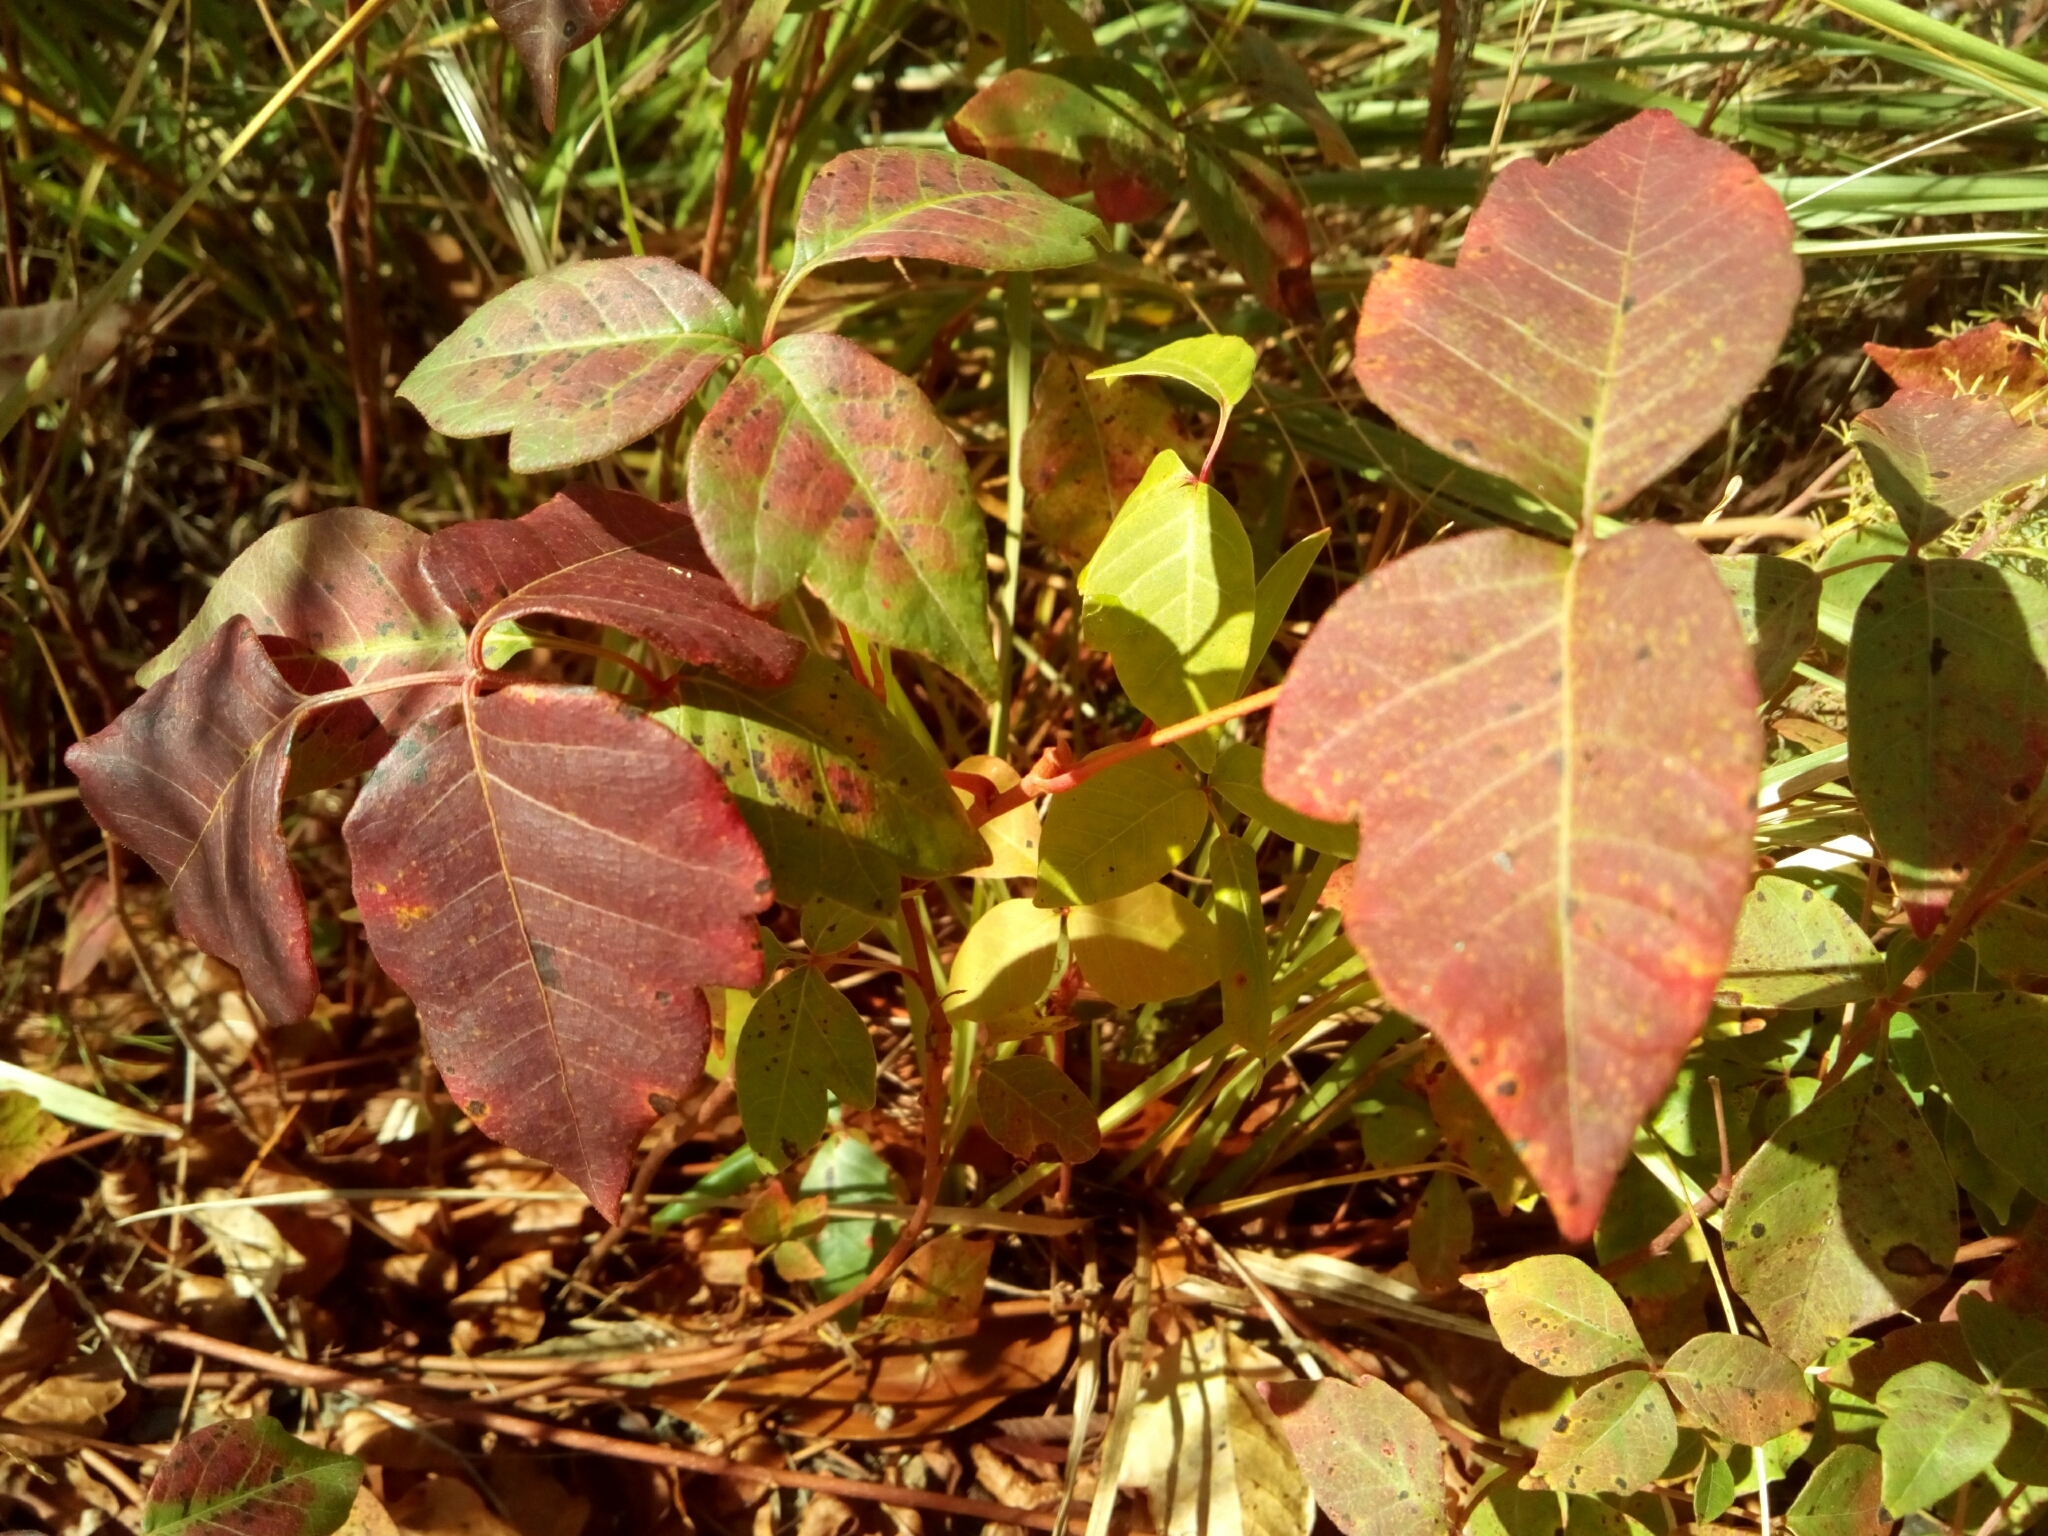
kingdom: Plantae
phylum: Tracheophyta
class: Magnoliopsida
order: Sapindales
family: Anacardiaceae
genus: Toxicodendron
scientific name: Toxicodendron radicans
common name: Poison ivy
